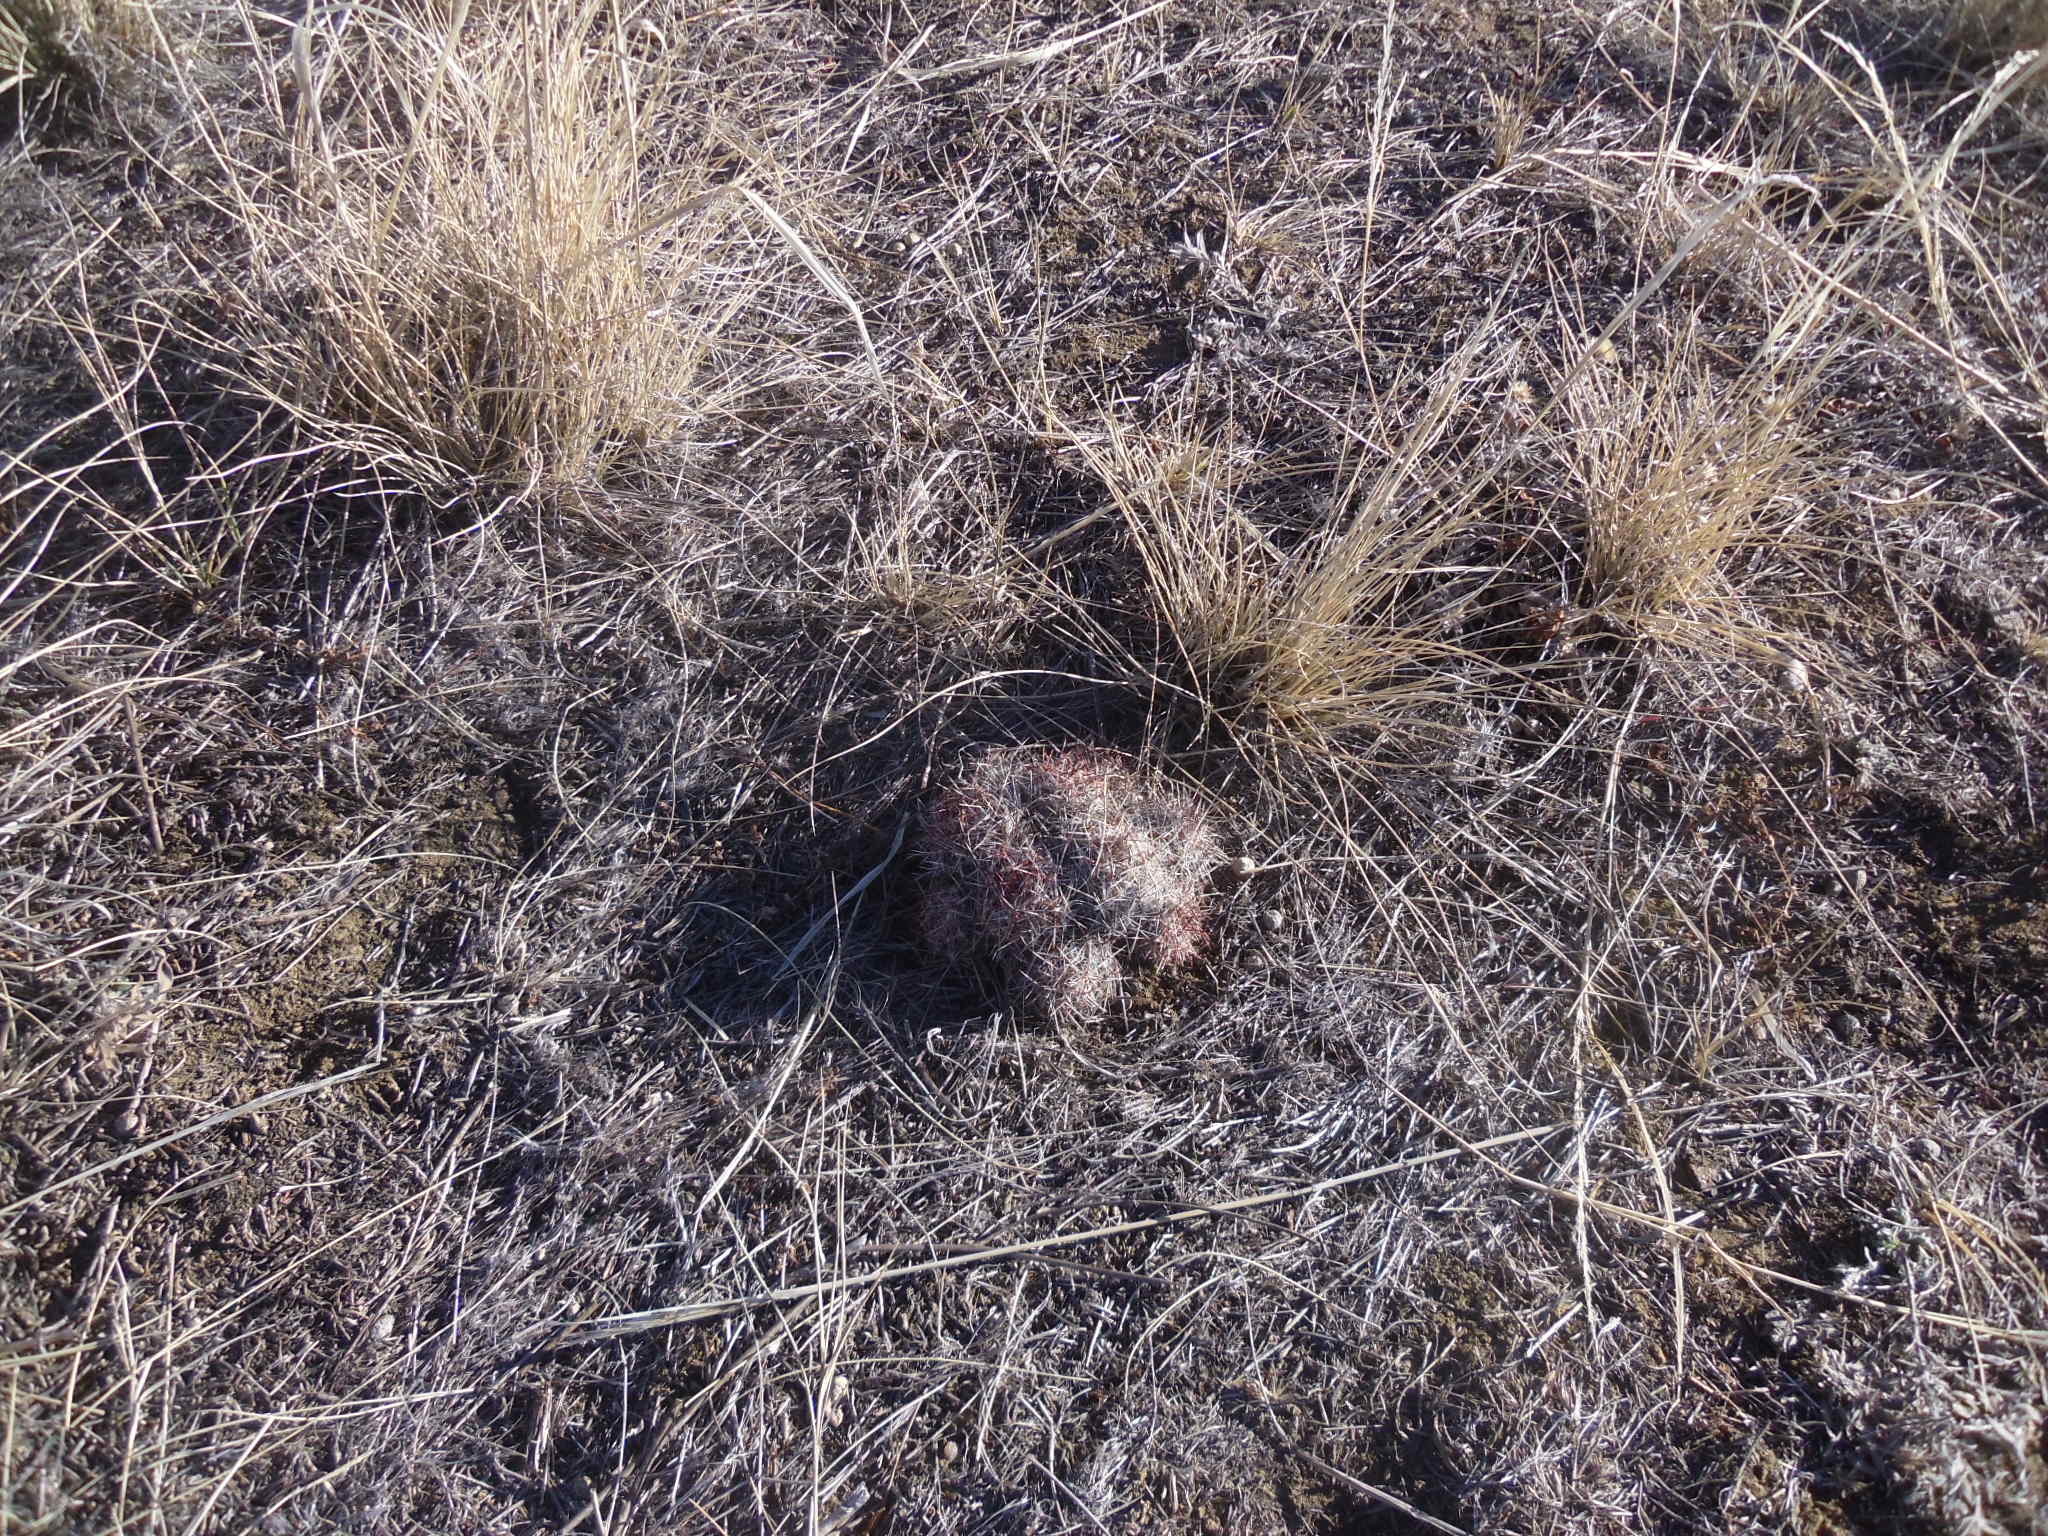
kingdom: Plantae
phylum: Tracheophyta
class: Magnoliopsida
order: Caryophyllales
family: Cactaceae
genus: Pelecyphora
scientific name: Pelecyphora vivipara
